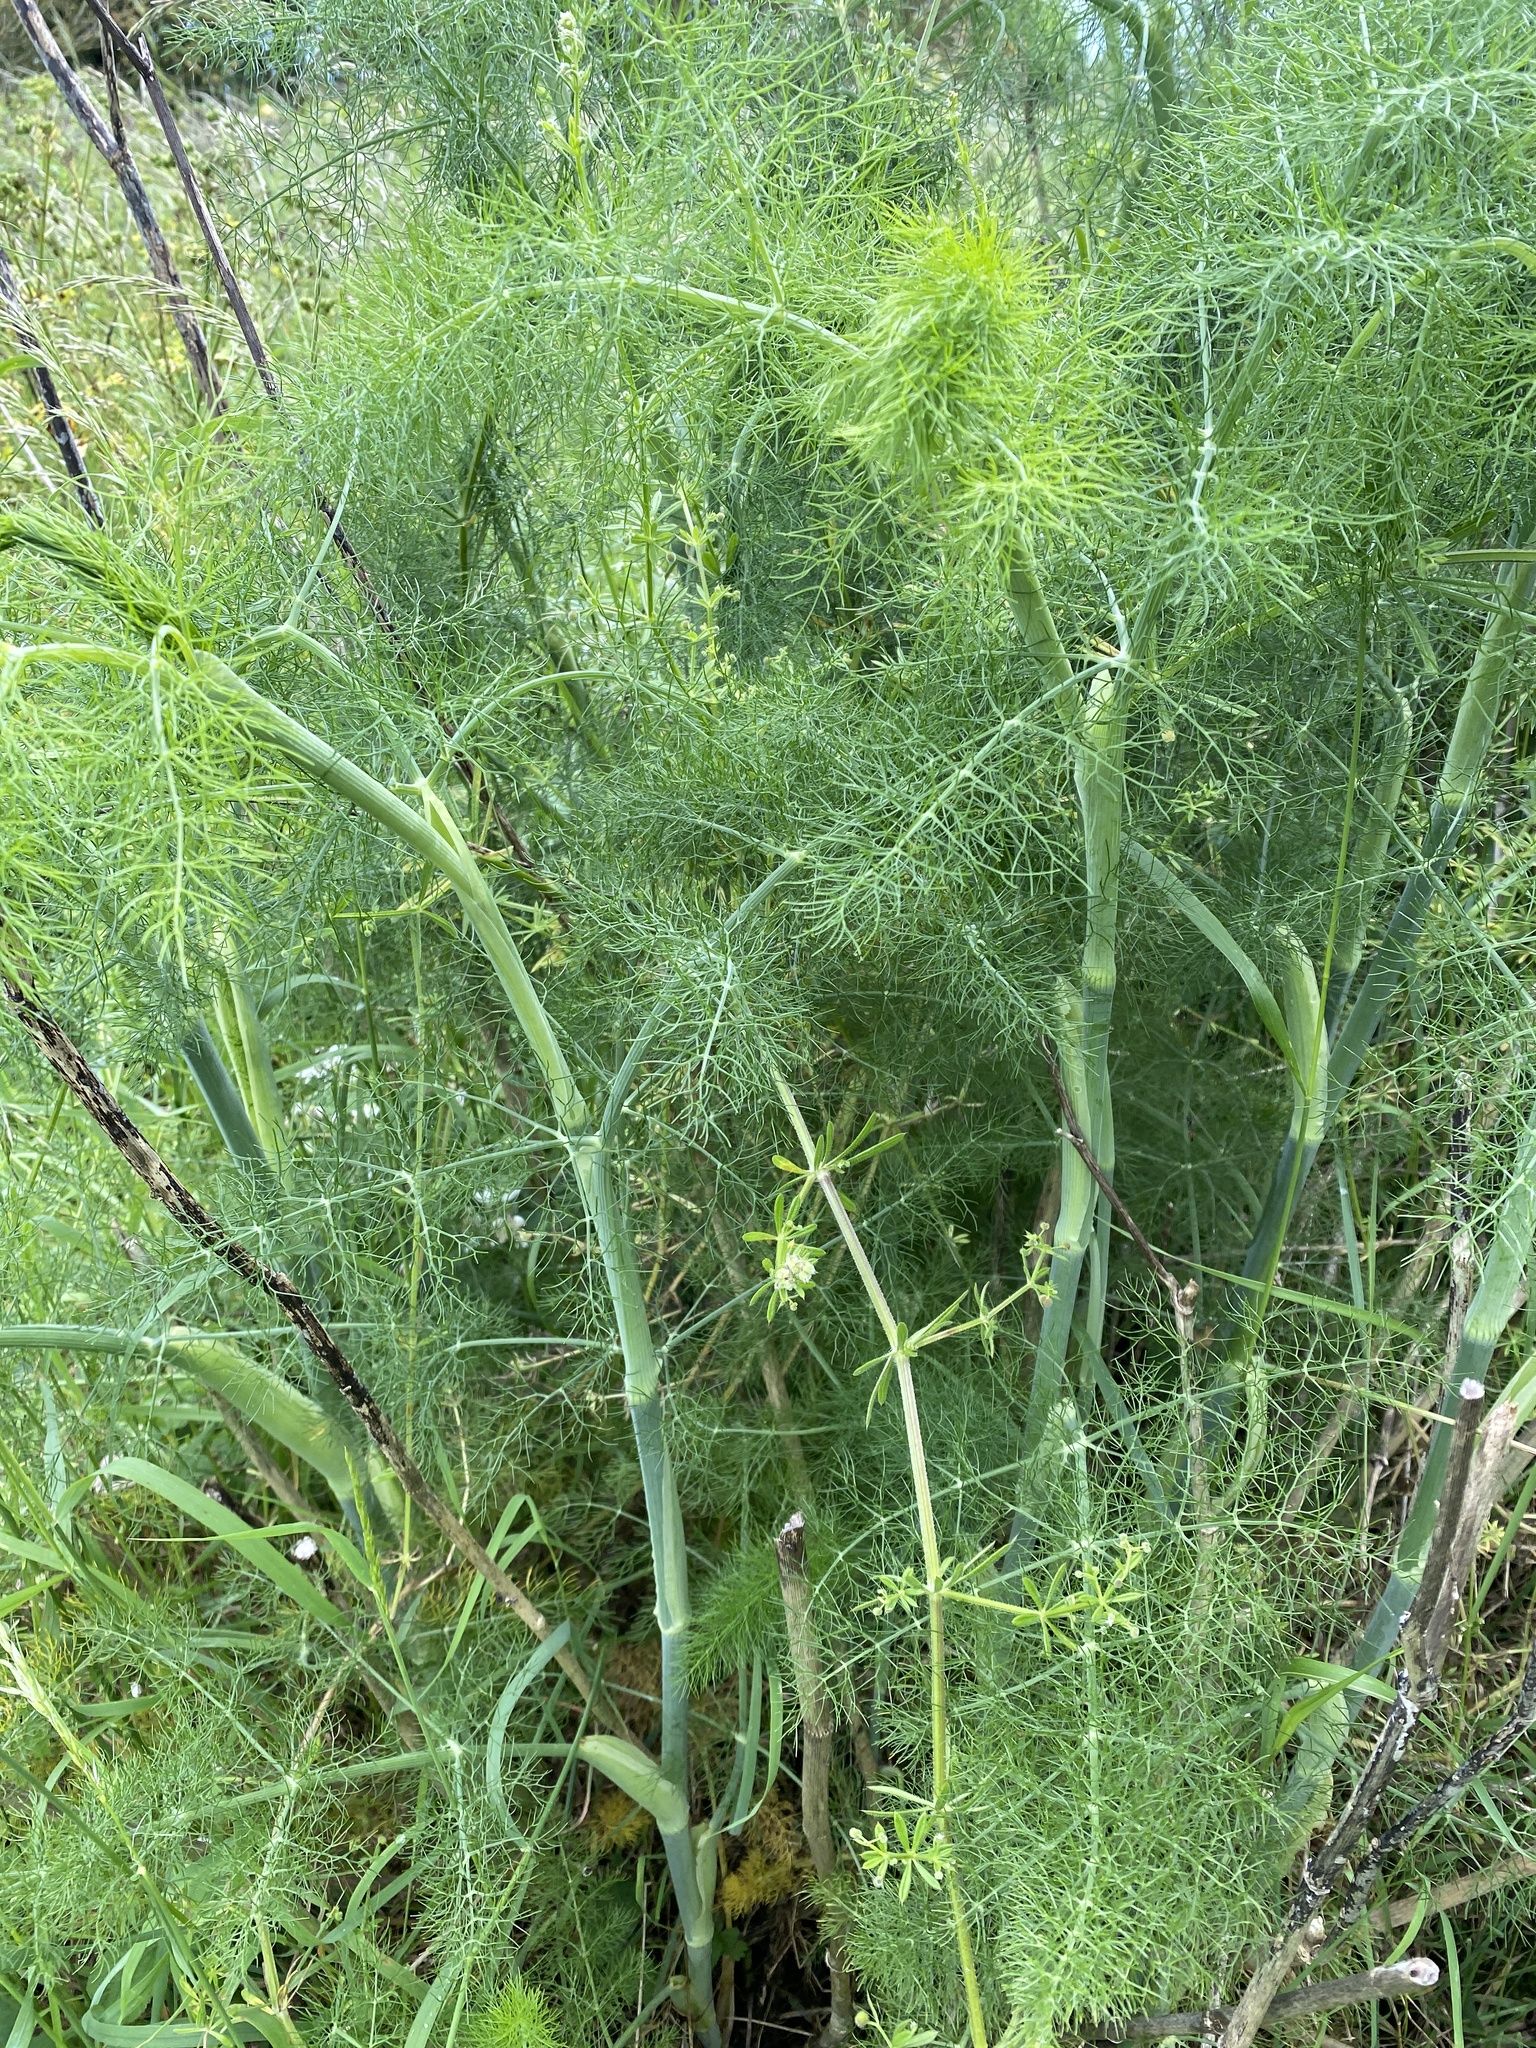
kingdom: Plantae
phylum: Tracheophyta
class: Magnoliopsida
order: Apiales
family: Apiaceae
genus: Foeniculum
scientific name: Foeniculum vulgare
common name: Fennel
